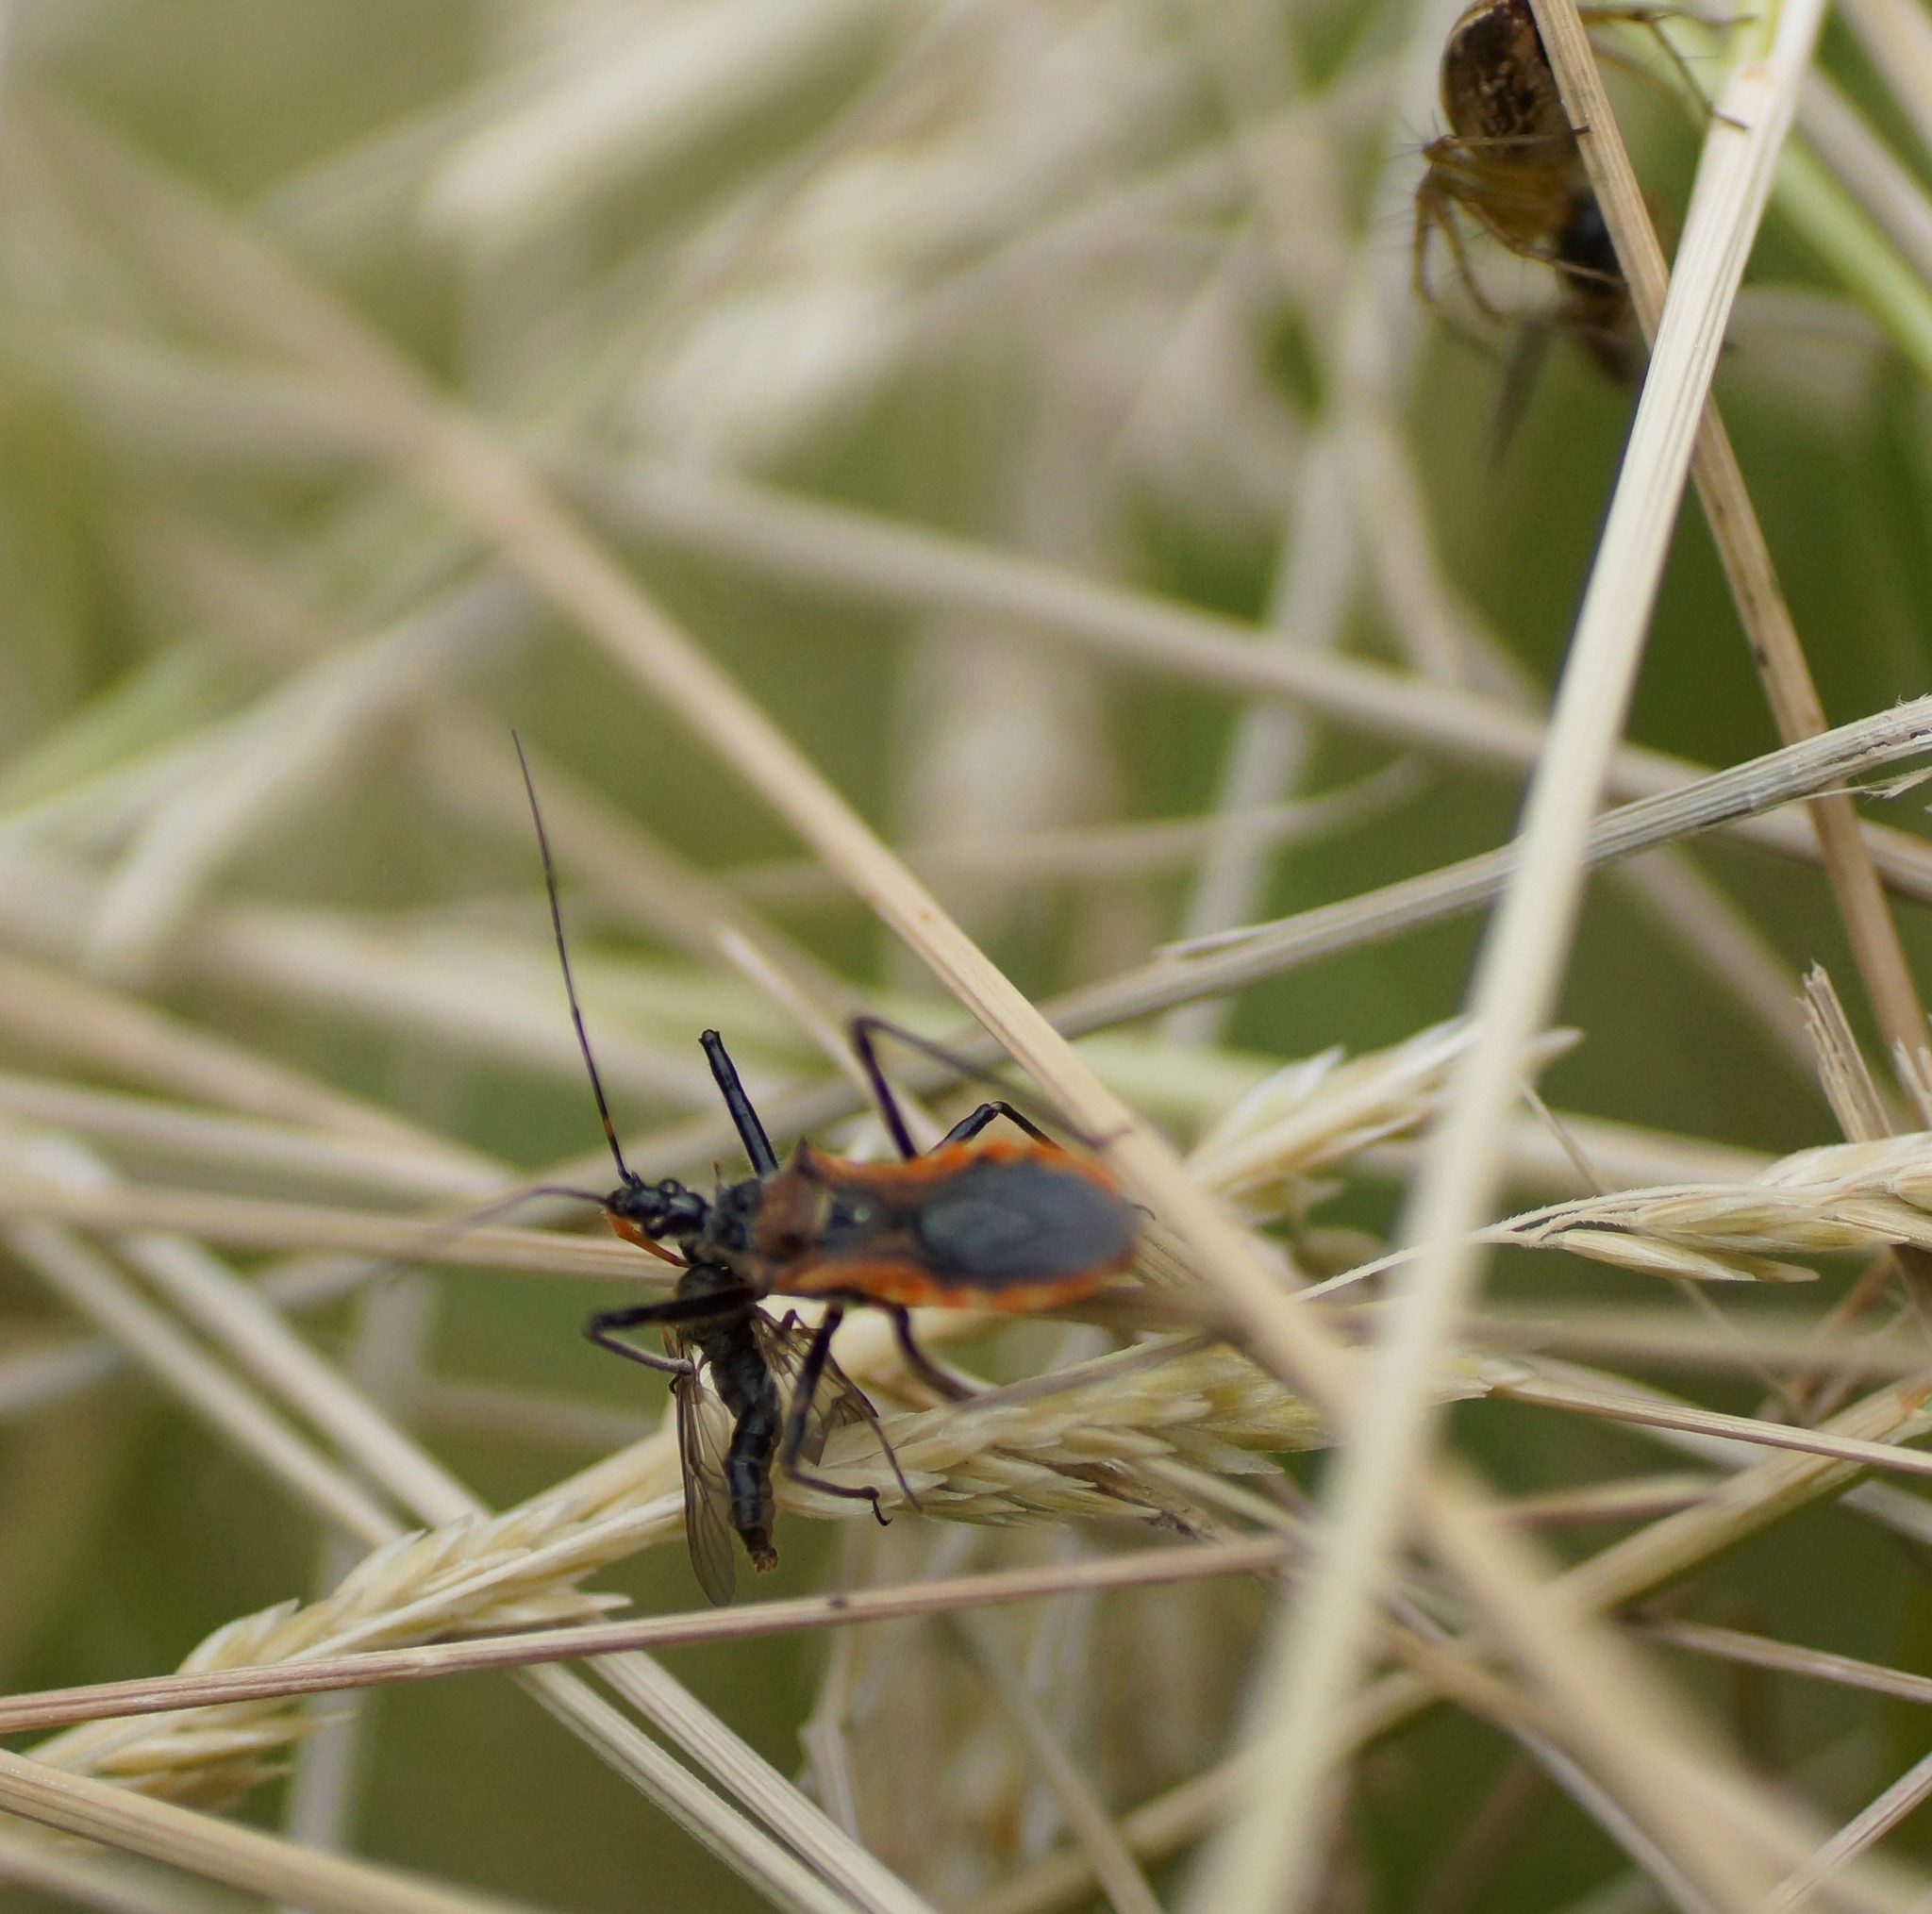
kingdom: Animalia
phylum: Arthropoda
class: Insecta
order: Hemiptera
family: Reduviidae
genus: Gminatus
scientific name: Gminatus australis
